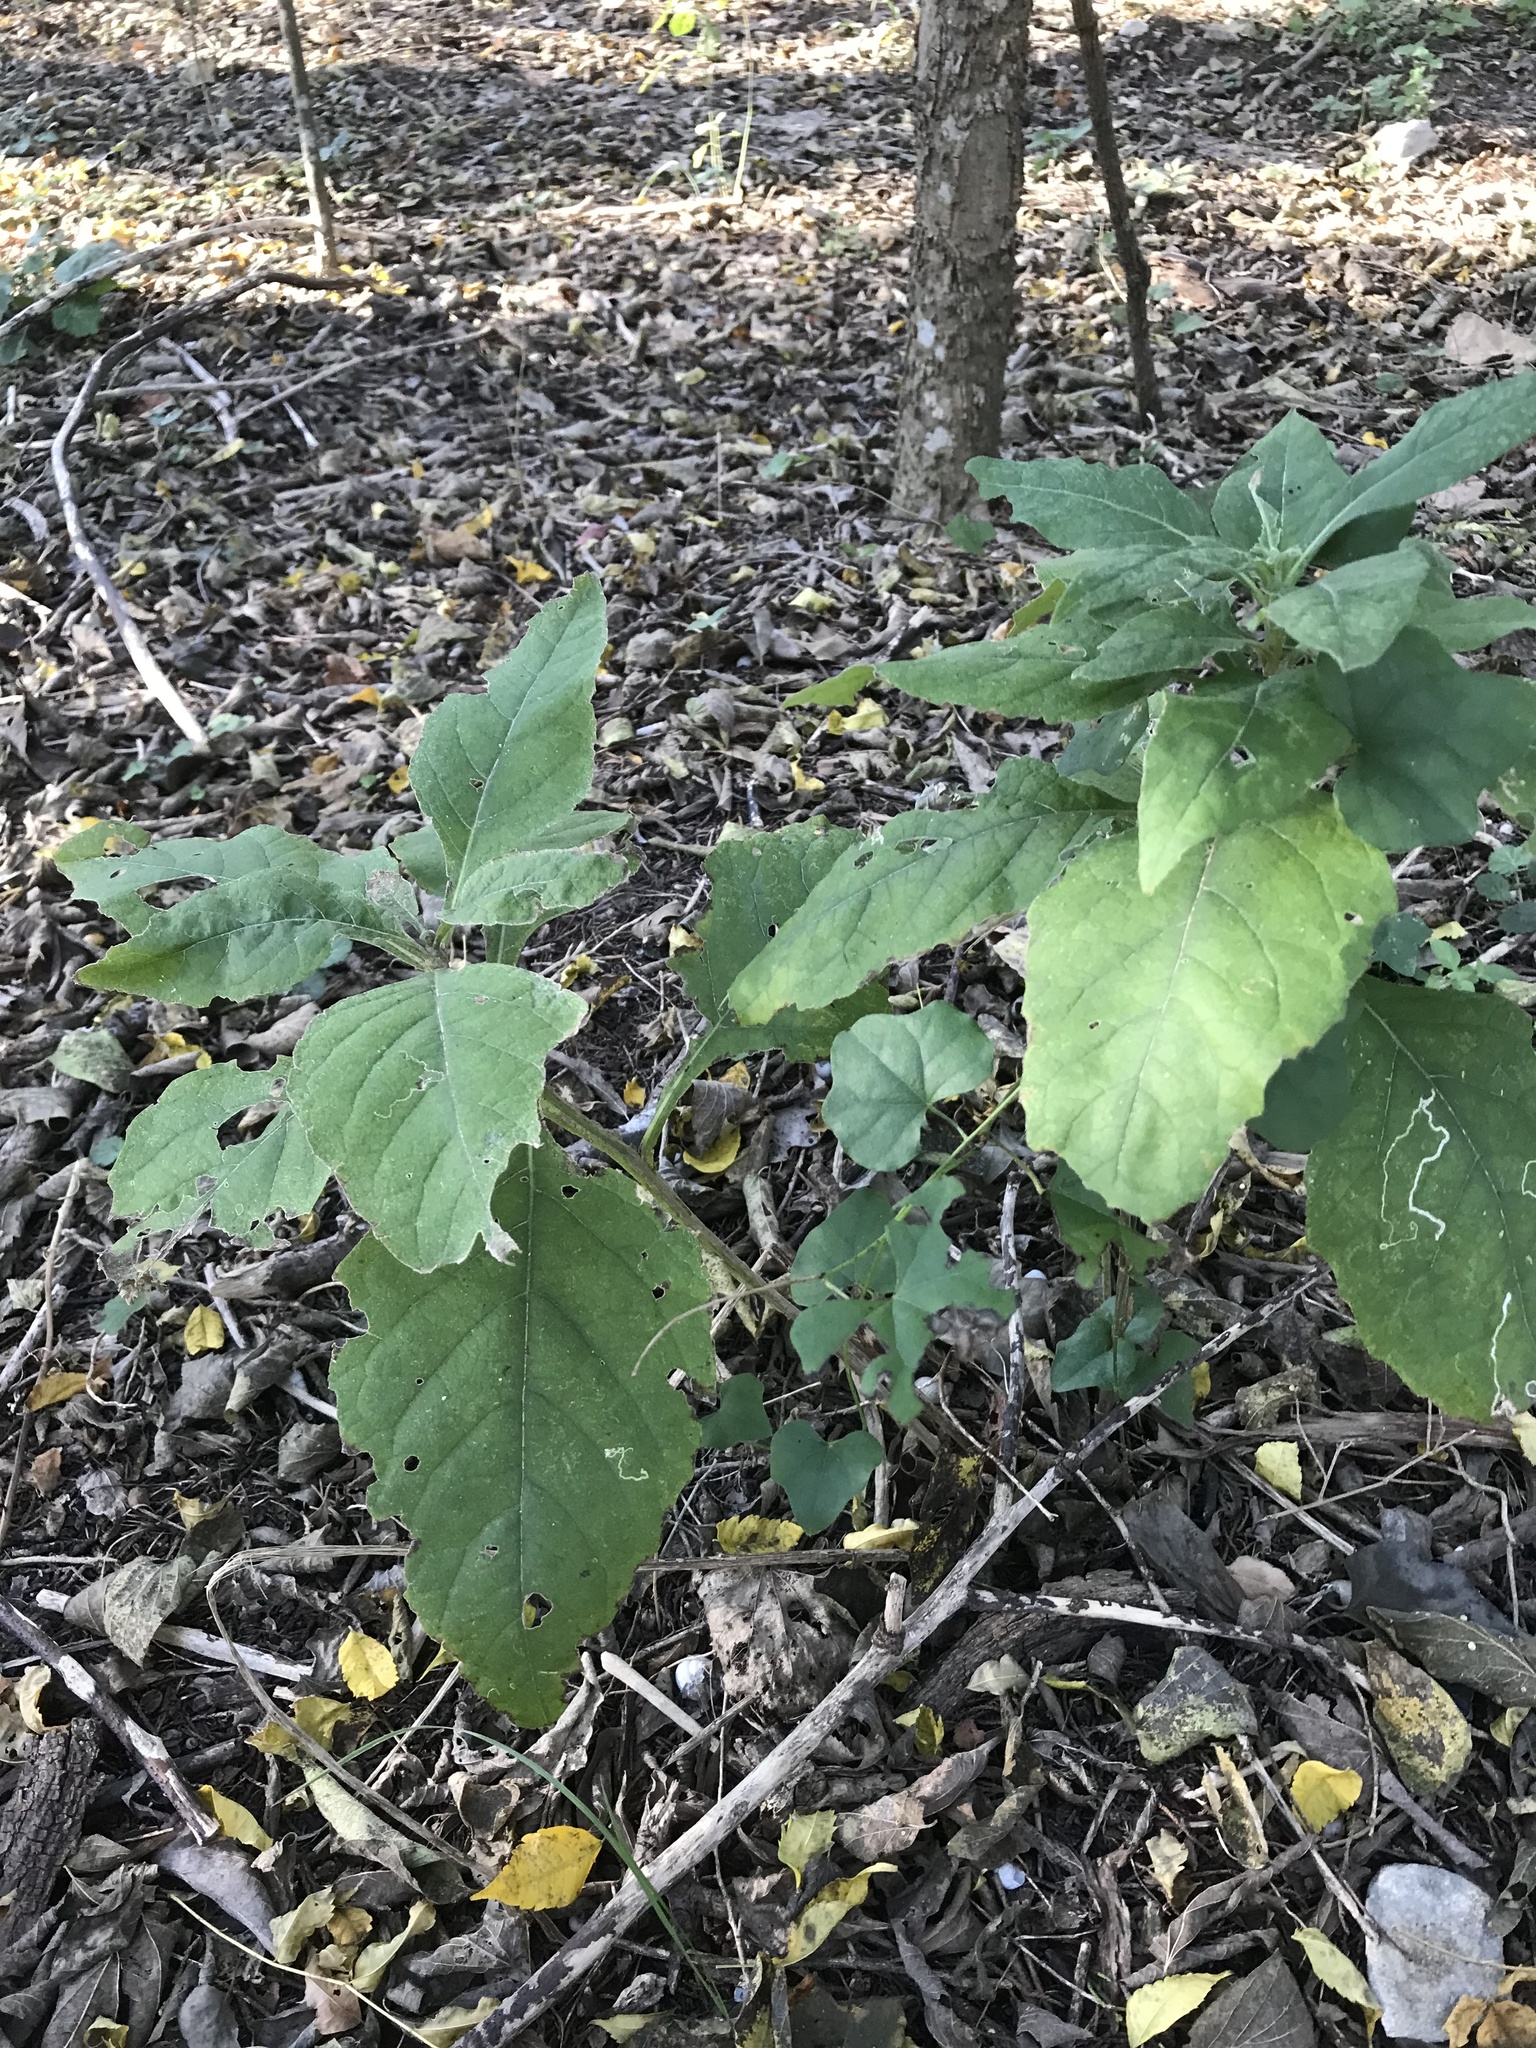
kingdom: Plantae
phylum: Tracheophyta
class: Magnoliopsida
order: Asterales
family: Asteraceae
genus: Verbesina
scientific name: Verbesina virginica
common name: Frostweed
